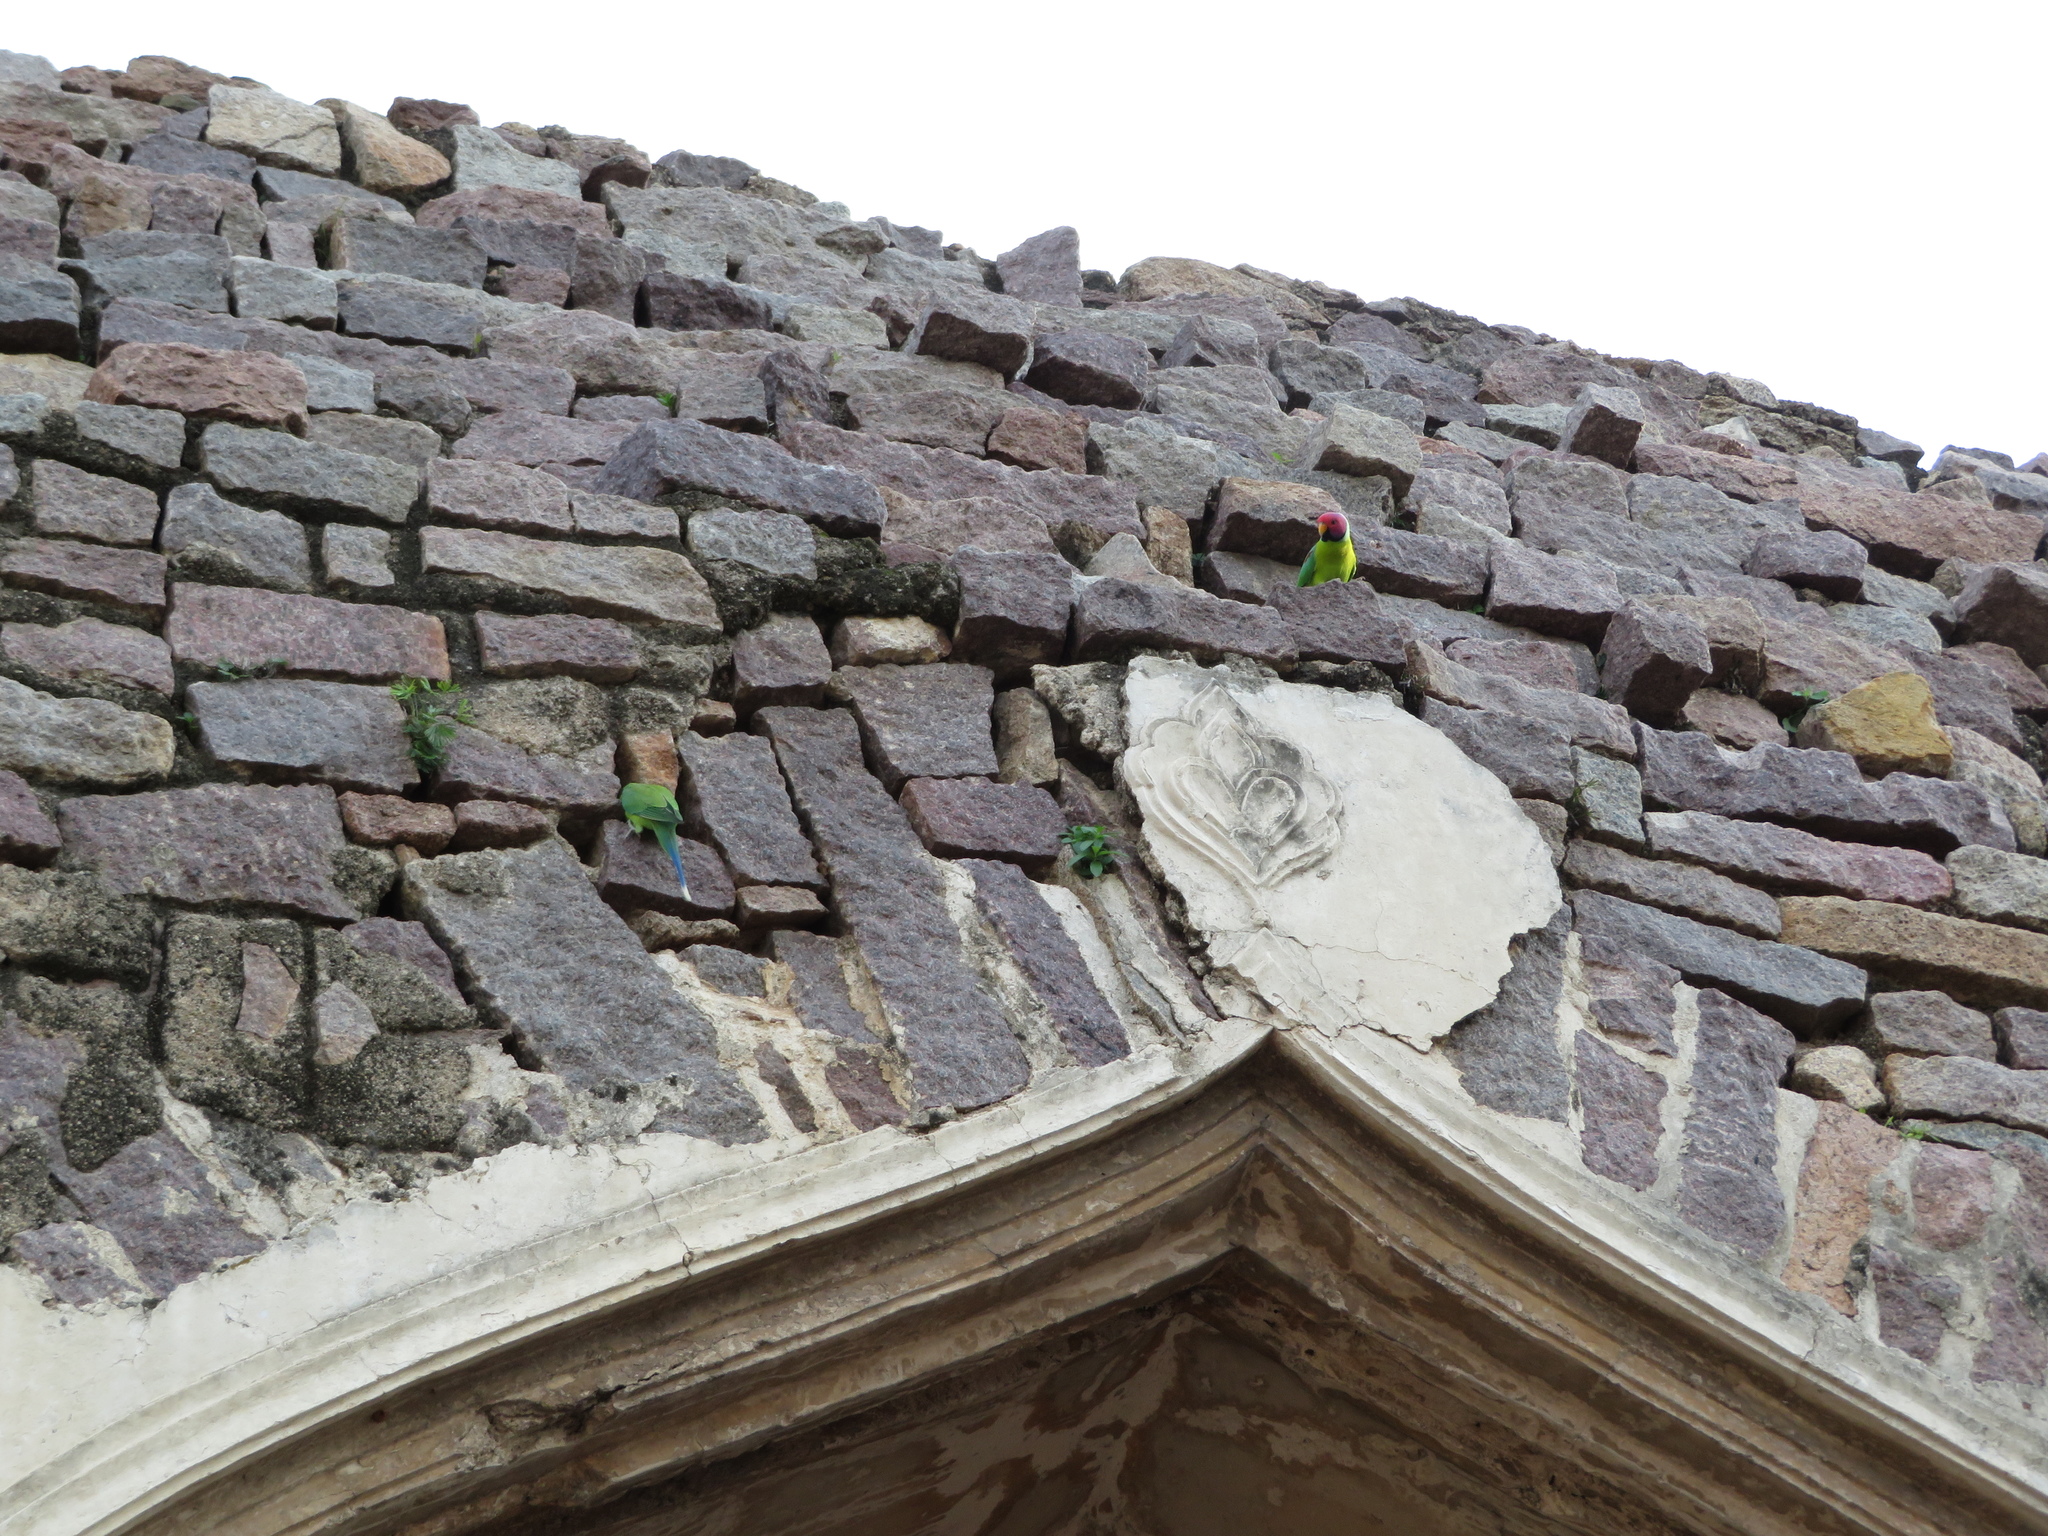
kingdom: Animalia
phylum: Chordata
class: Aves
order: Psittaciformes
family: Psittacidae
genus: Psittacula
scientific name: Psittacula cyanocephala
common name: Plum-headed parakeet
